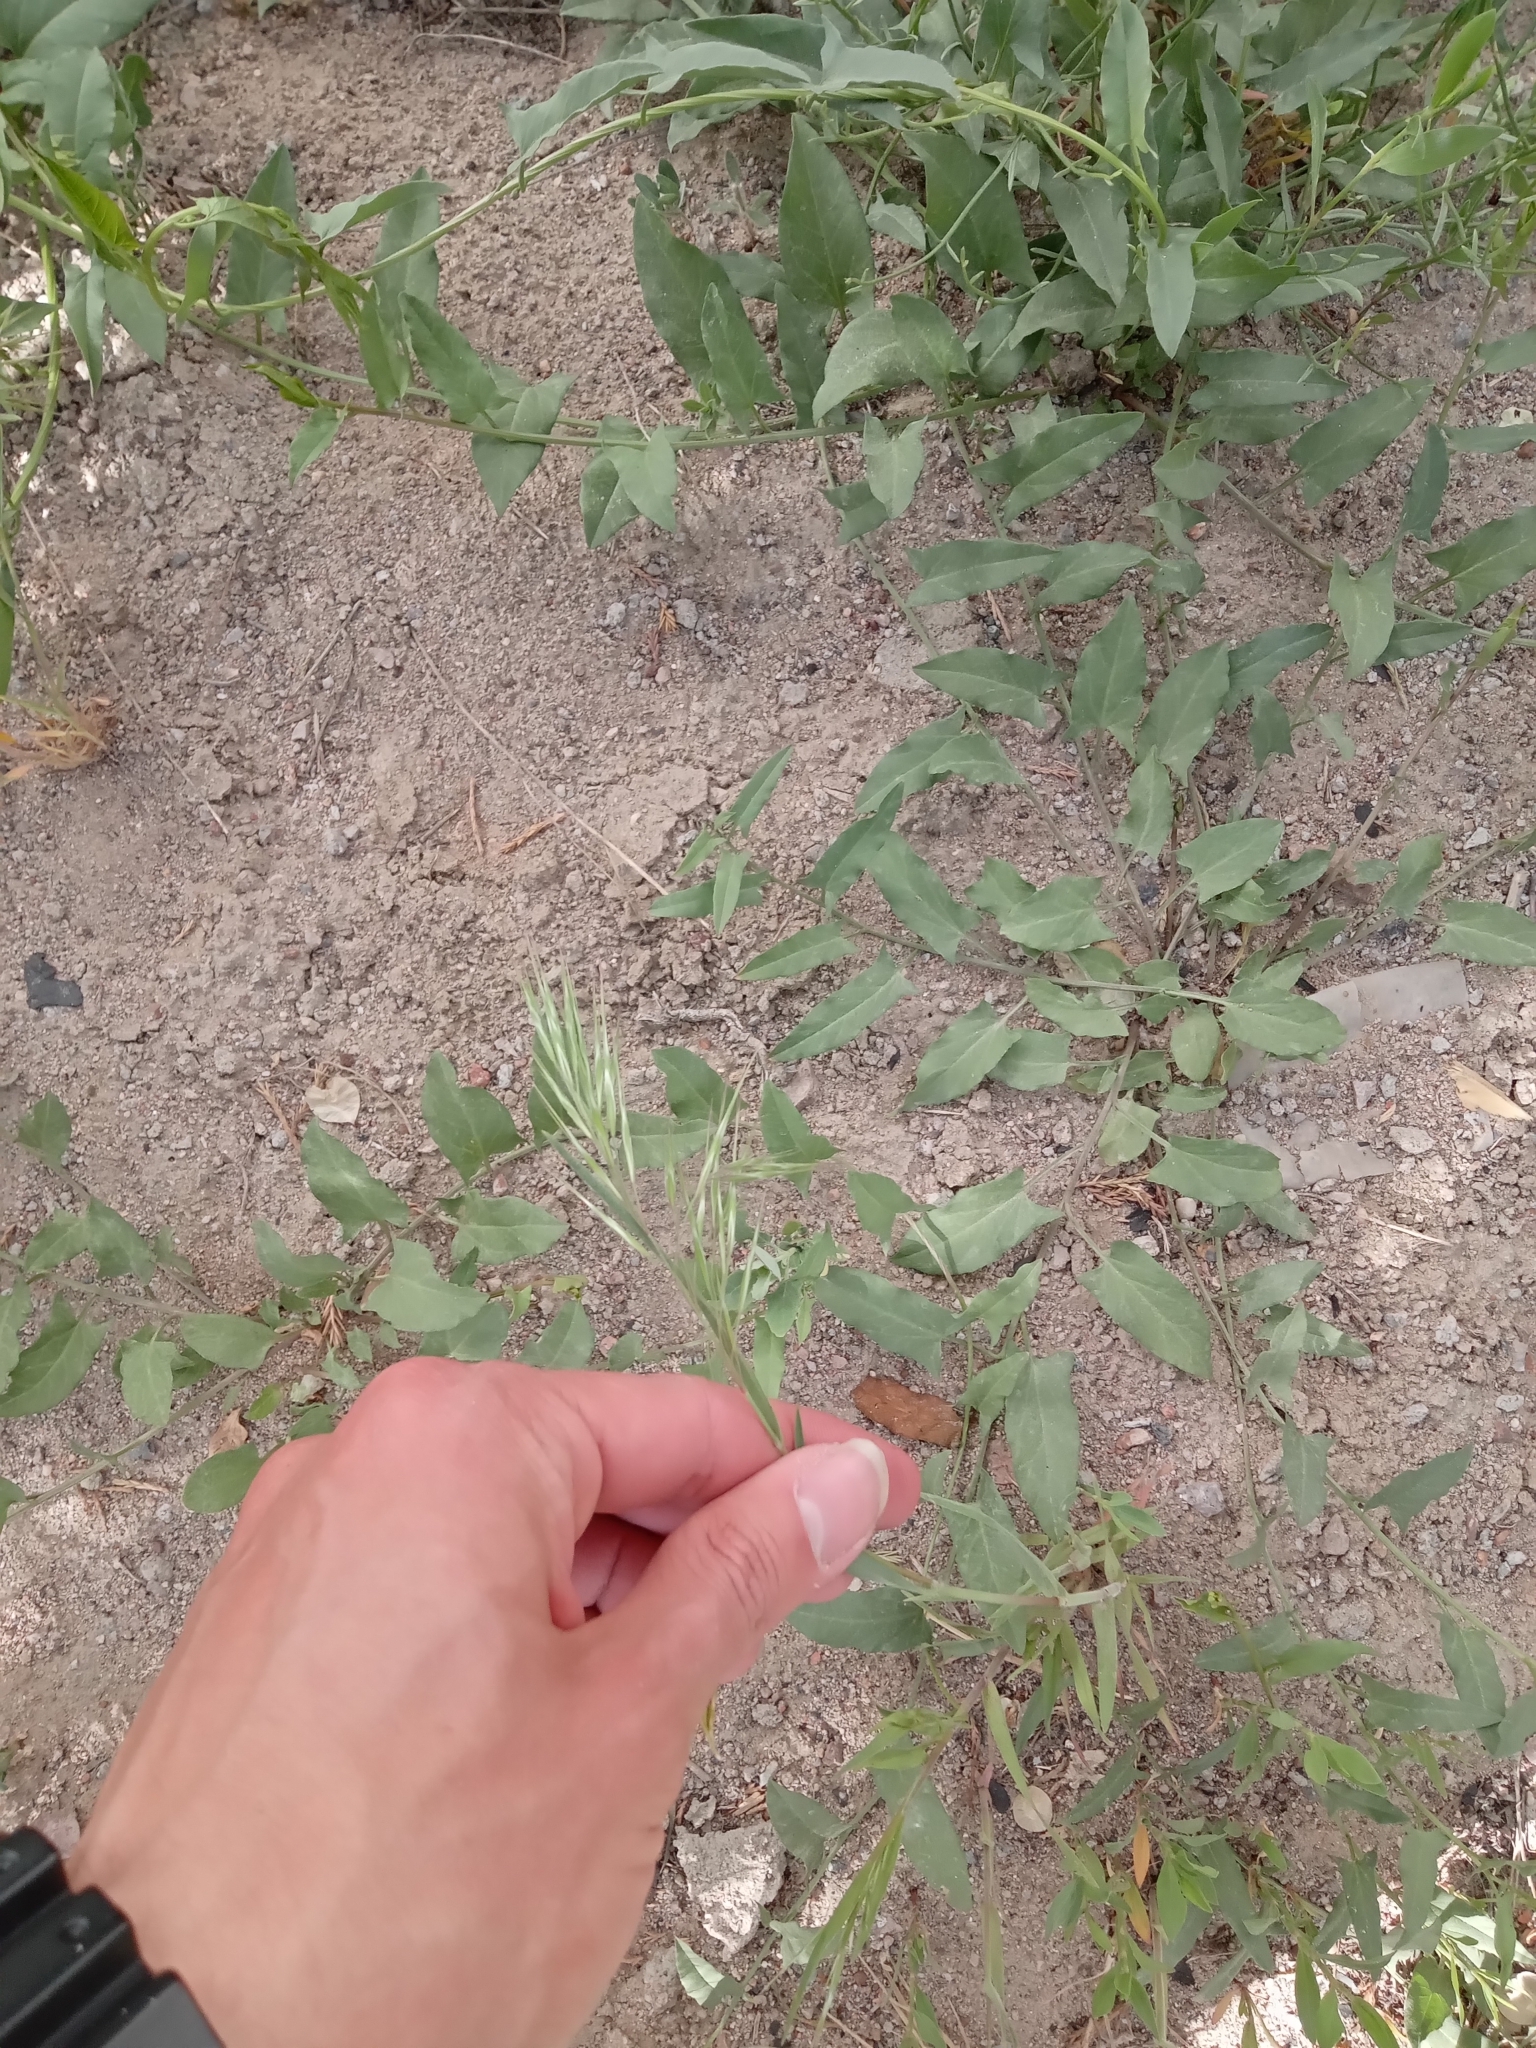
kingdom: Plantae
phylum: Tracheophyta
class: Liliopsida
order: Poales
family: Poaceae
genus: Bromus
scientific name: Bromus tectorum
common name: Cheatgrass
